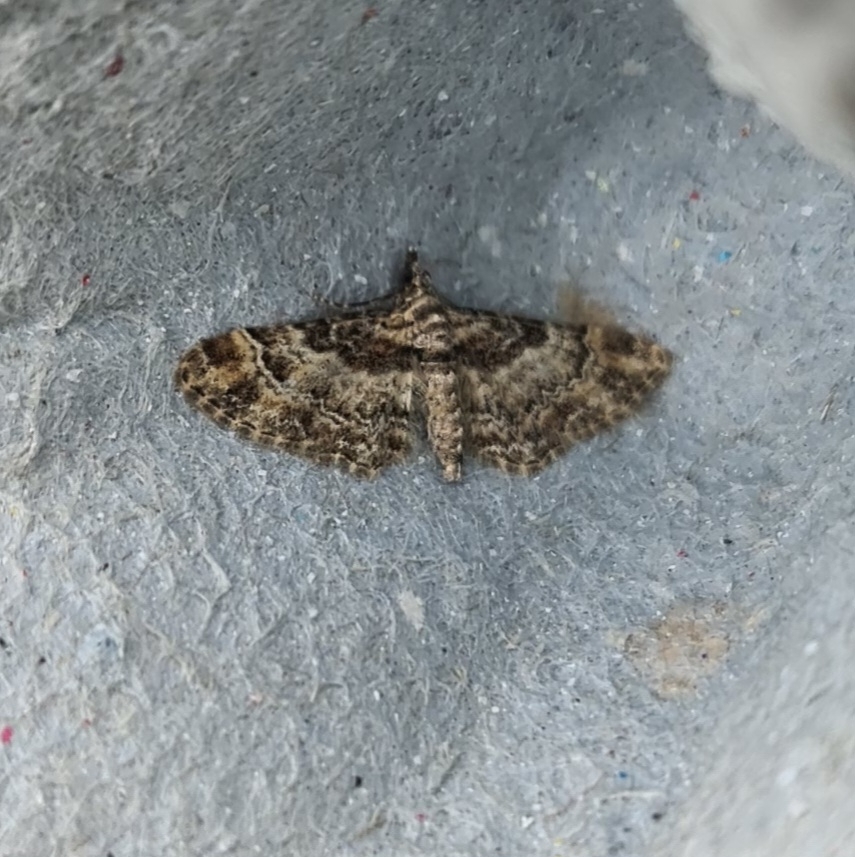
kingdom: Animalia
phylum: Arthropoda
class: Insecta
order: Lepidoptera
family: Geometridae
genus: Gymnoscelis
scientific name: Gymnoscelis rufifasciata
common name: Double-striped pug
